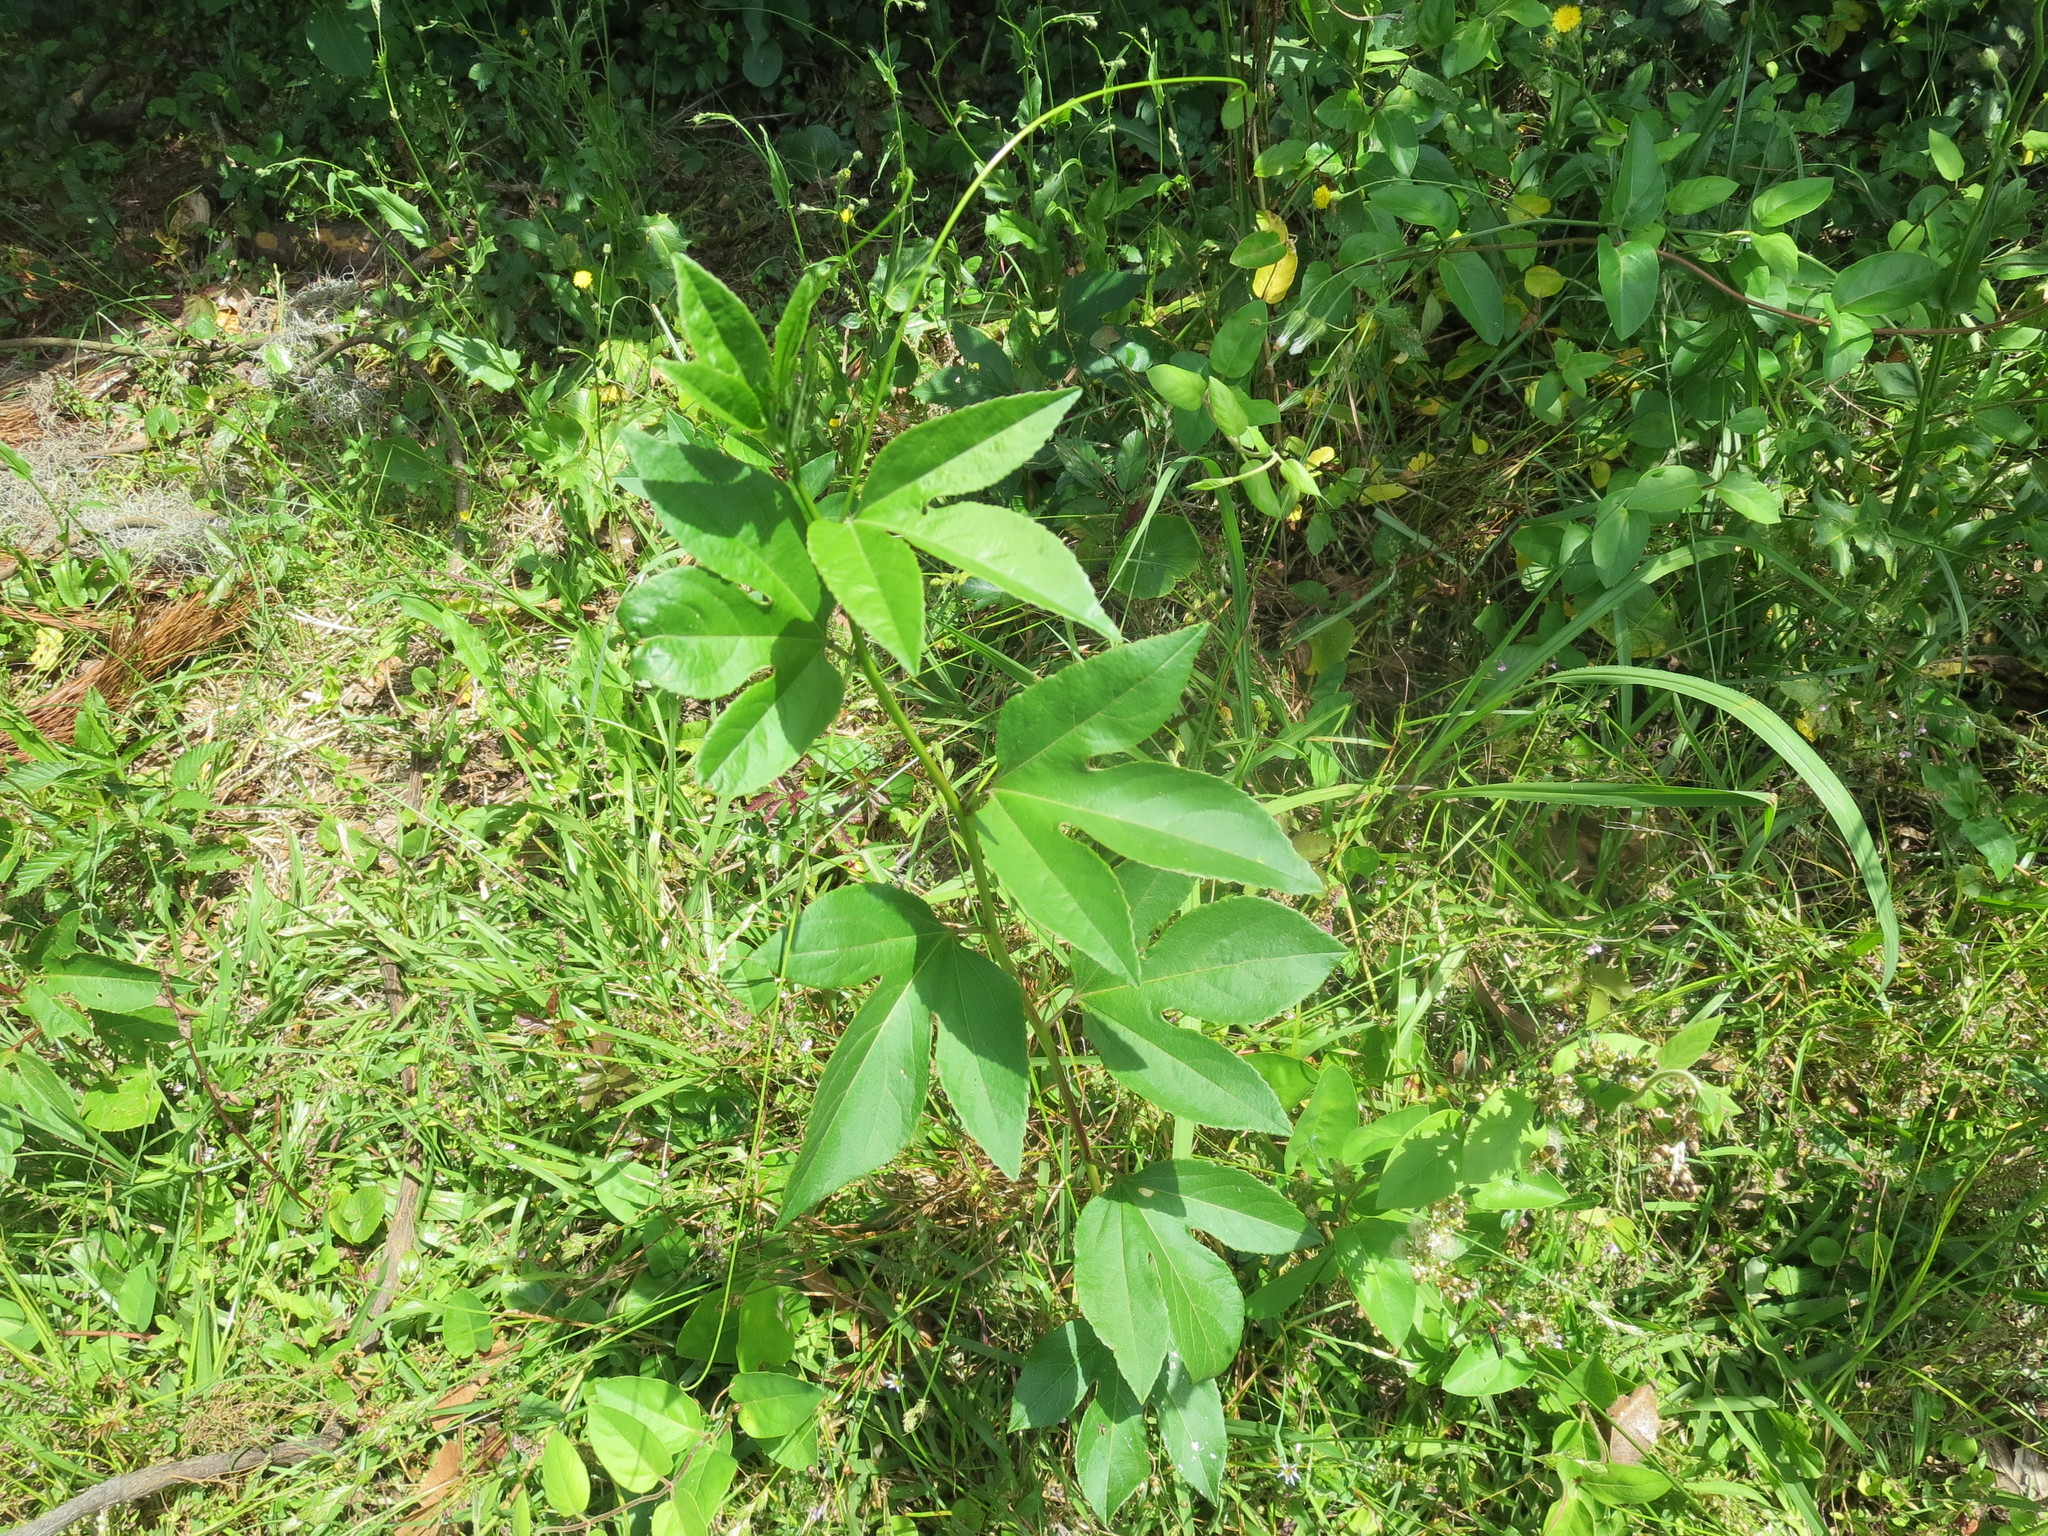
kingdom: Plantae
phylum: Tracheophyta
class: Magnoliopsida
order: Malpighiales
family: Passifloraceae
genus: Passiflora
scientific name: Passiflora incarnata
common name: Apricot-vine
